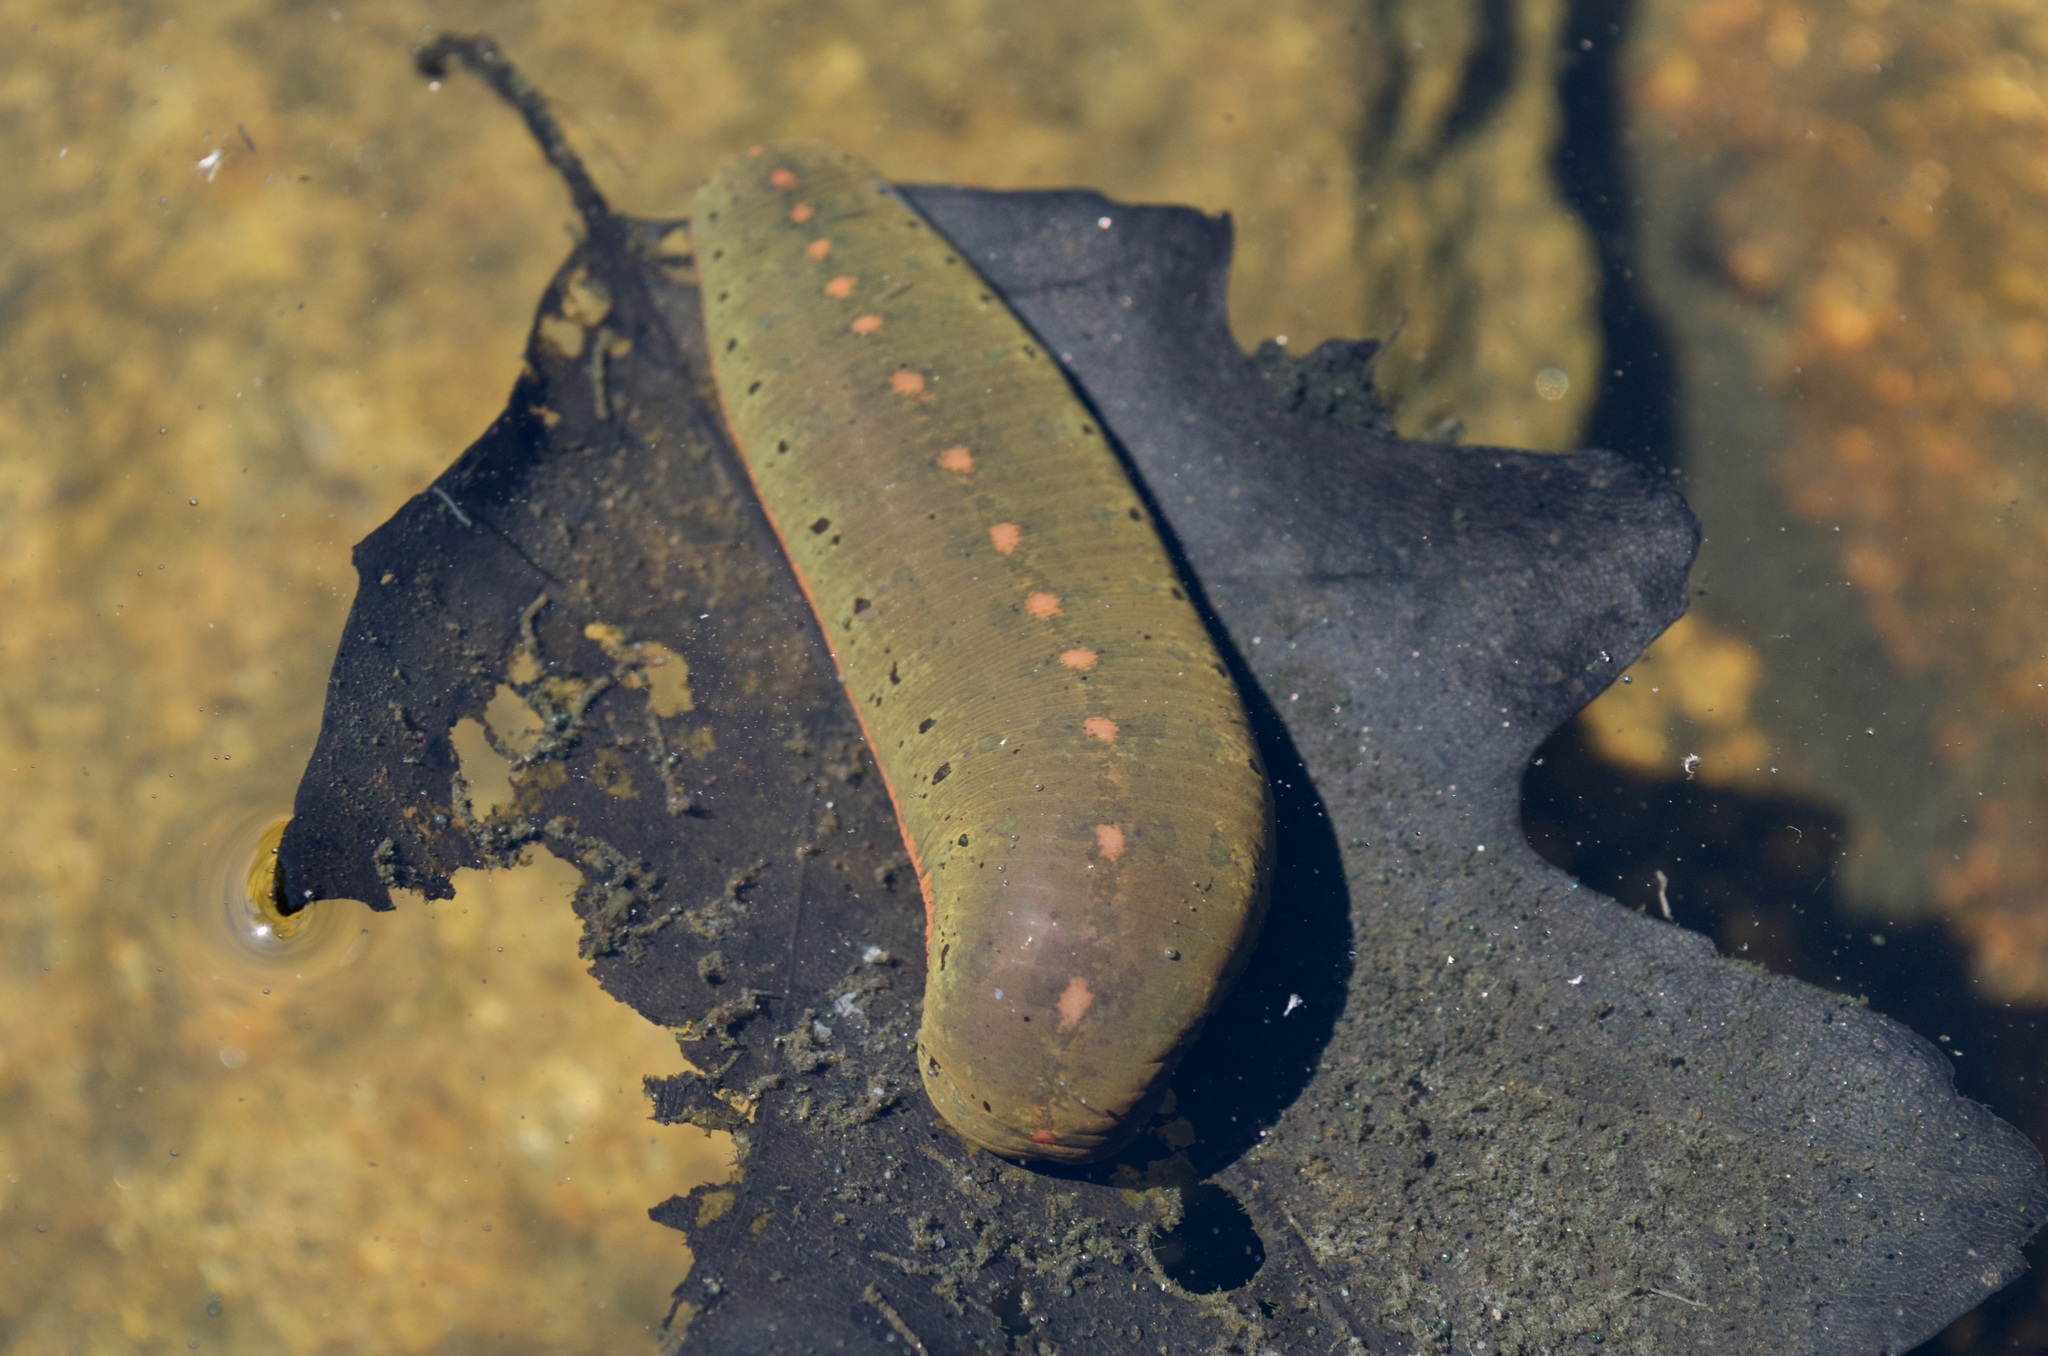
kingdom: Animalia
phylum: Annelida
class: Clitellata
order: Arhynchobdellida
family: Hirudinidae
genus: Macrobdella
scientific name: Macrobdella decora
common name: North american leech
